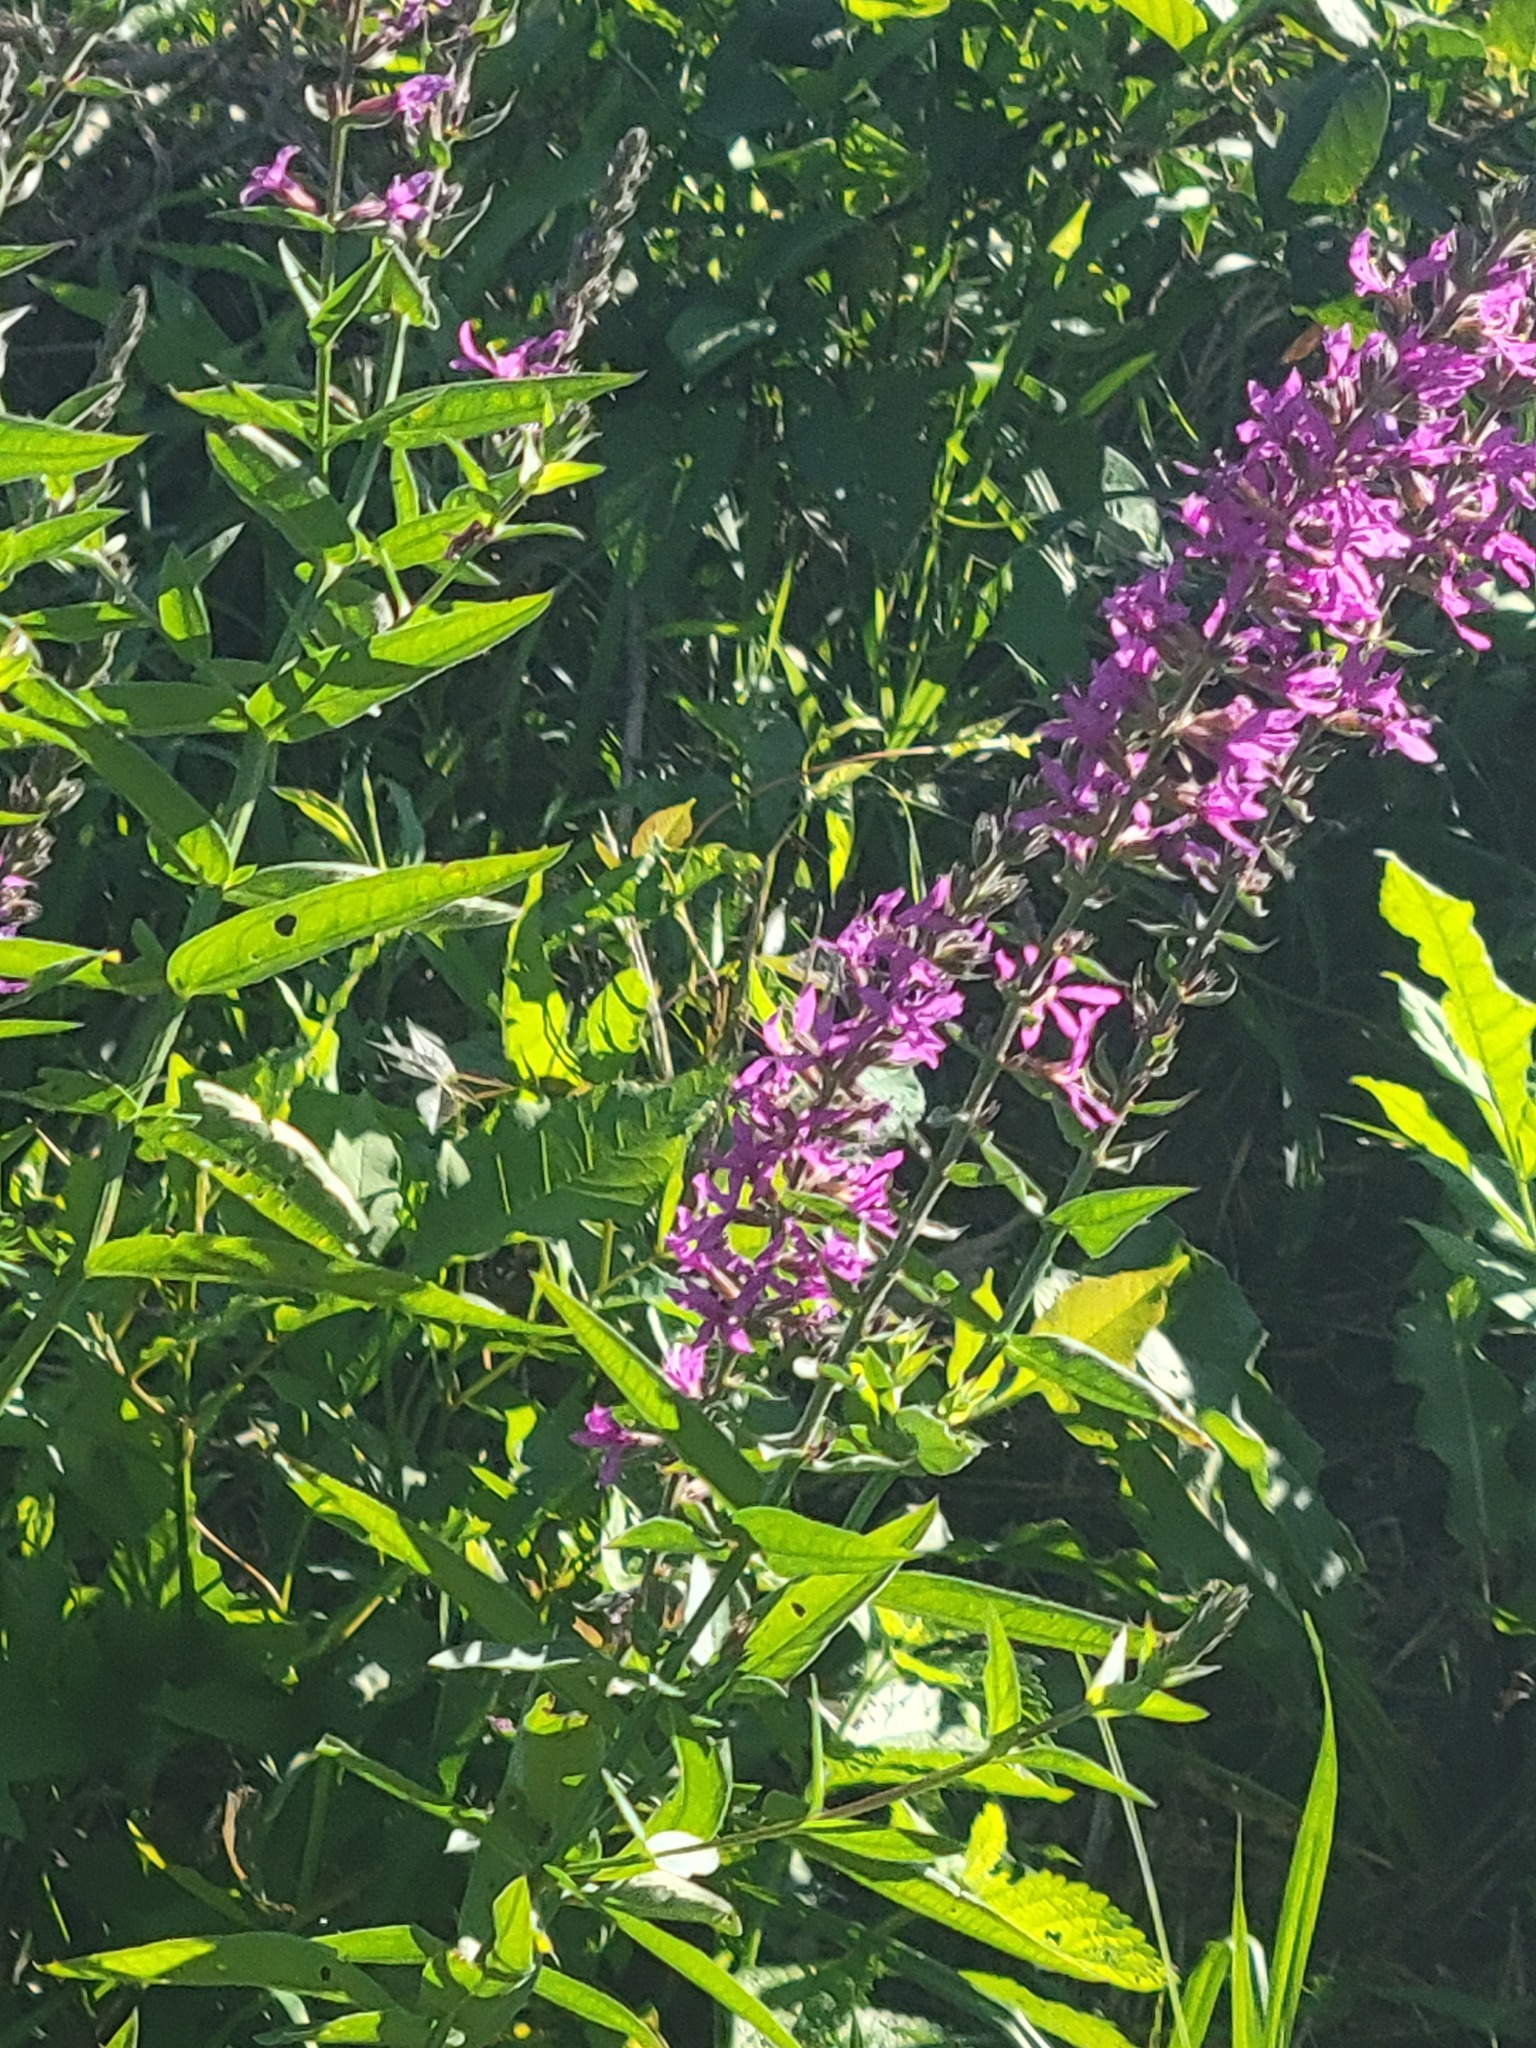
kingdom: Plantae
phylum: Tracheophyta
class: Magnoliopsida
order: Myrtales
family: Lythraceae
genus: Lythrum
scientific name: Lythrum salicaria
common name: Purple loosestrife
